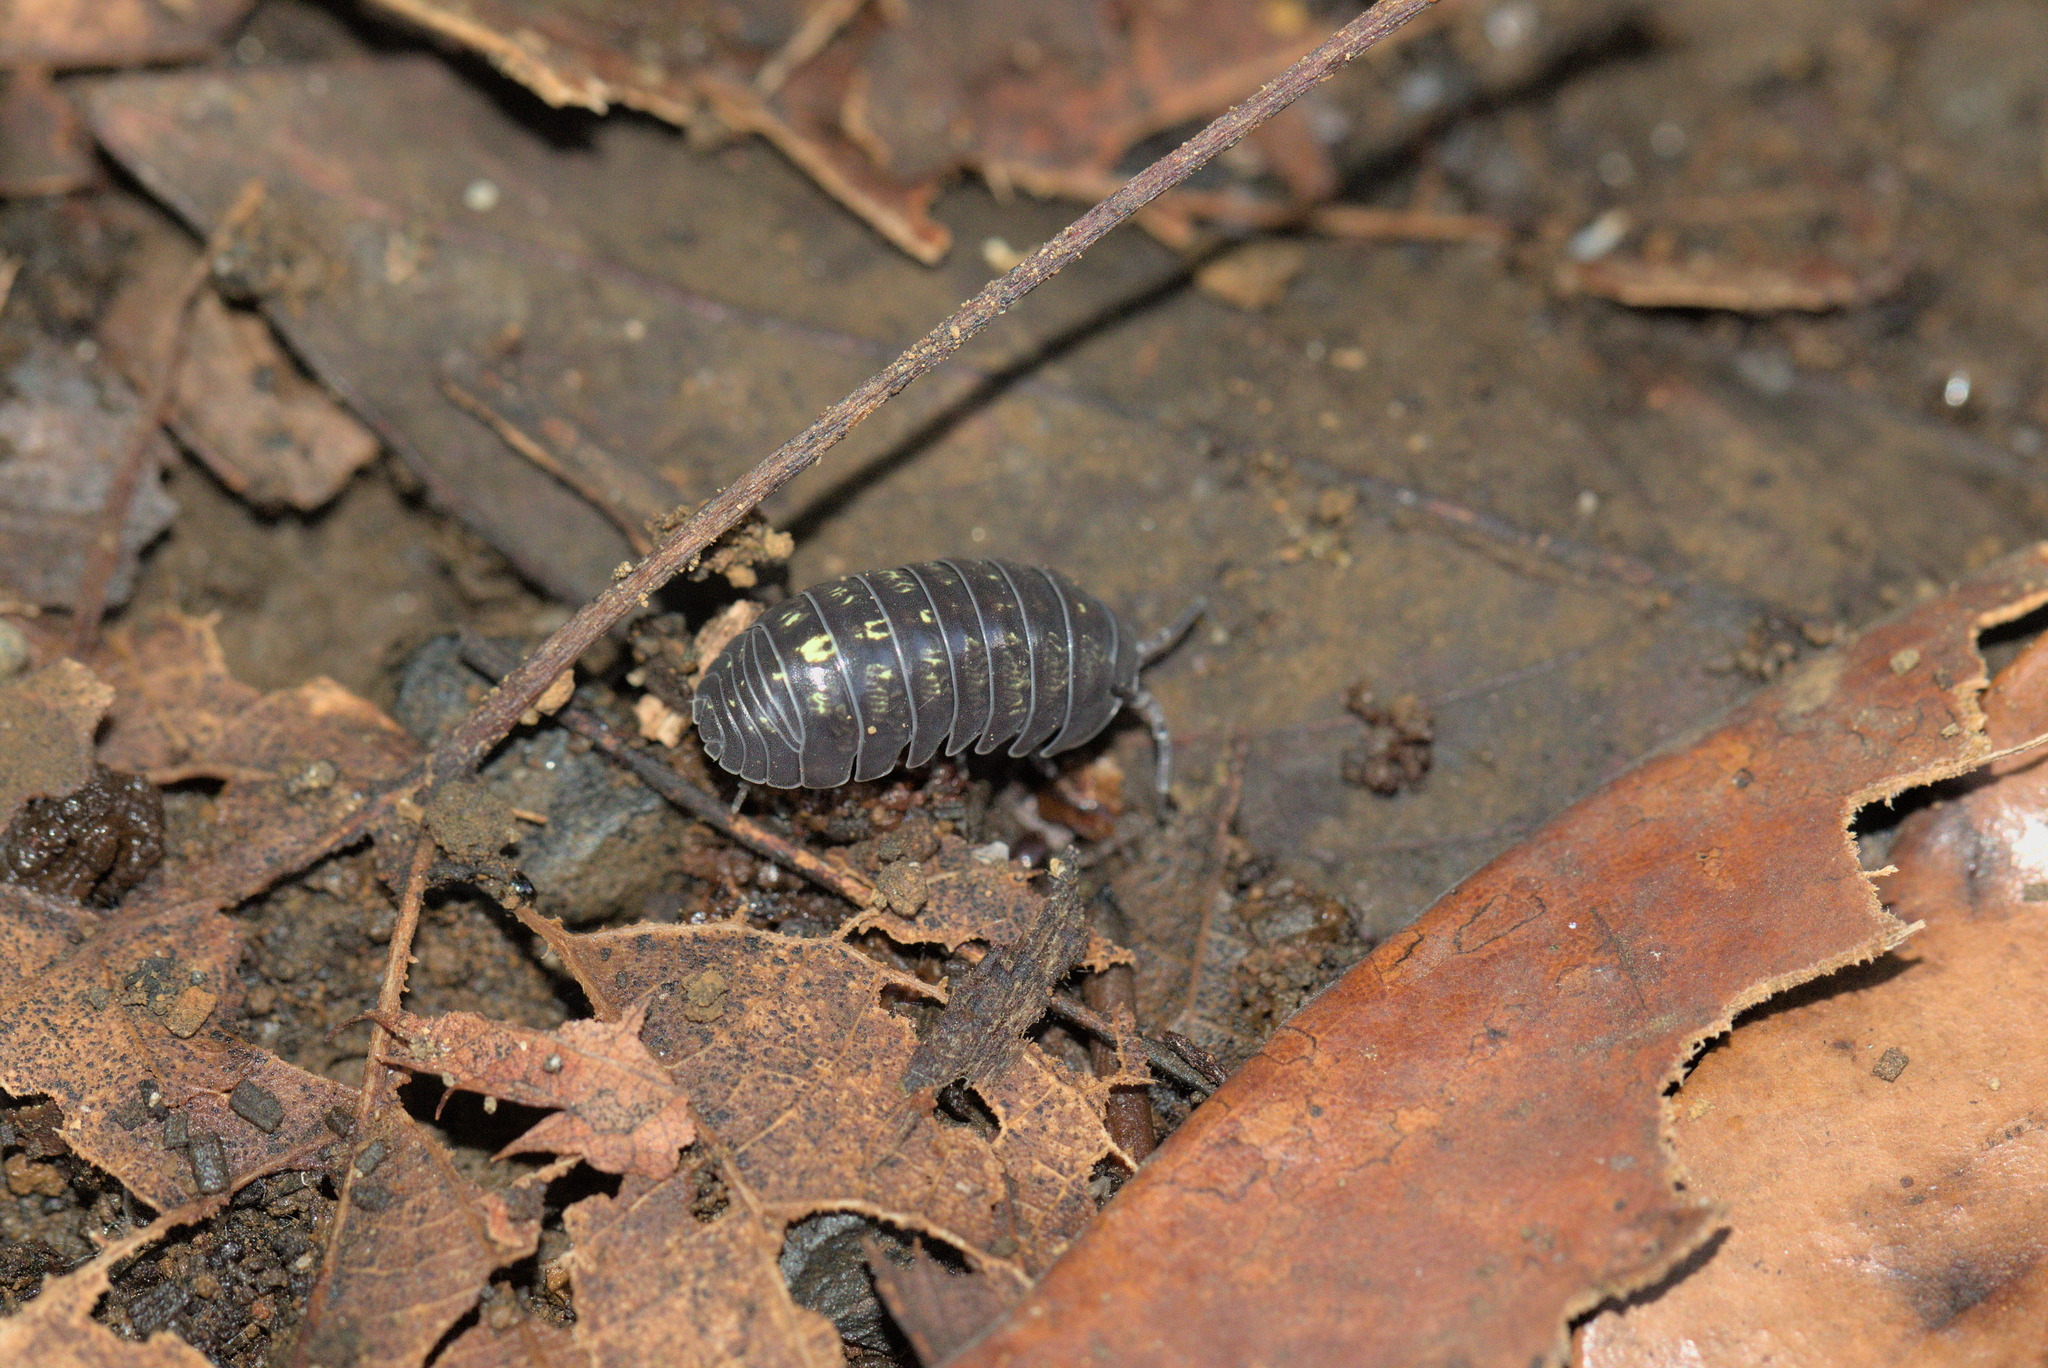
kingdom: Animalia
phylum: Arthropoda
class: Malacostraca
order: Isopoda
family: Armadillidiidae
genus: Armadillidium
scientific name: Armadillidium vulgare
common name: Common pill woodlouse
